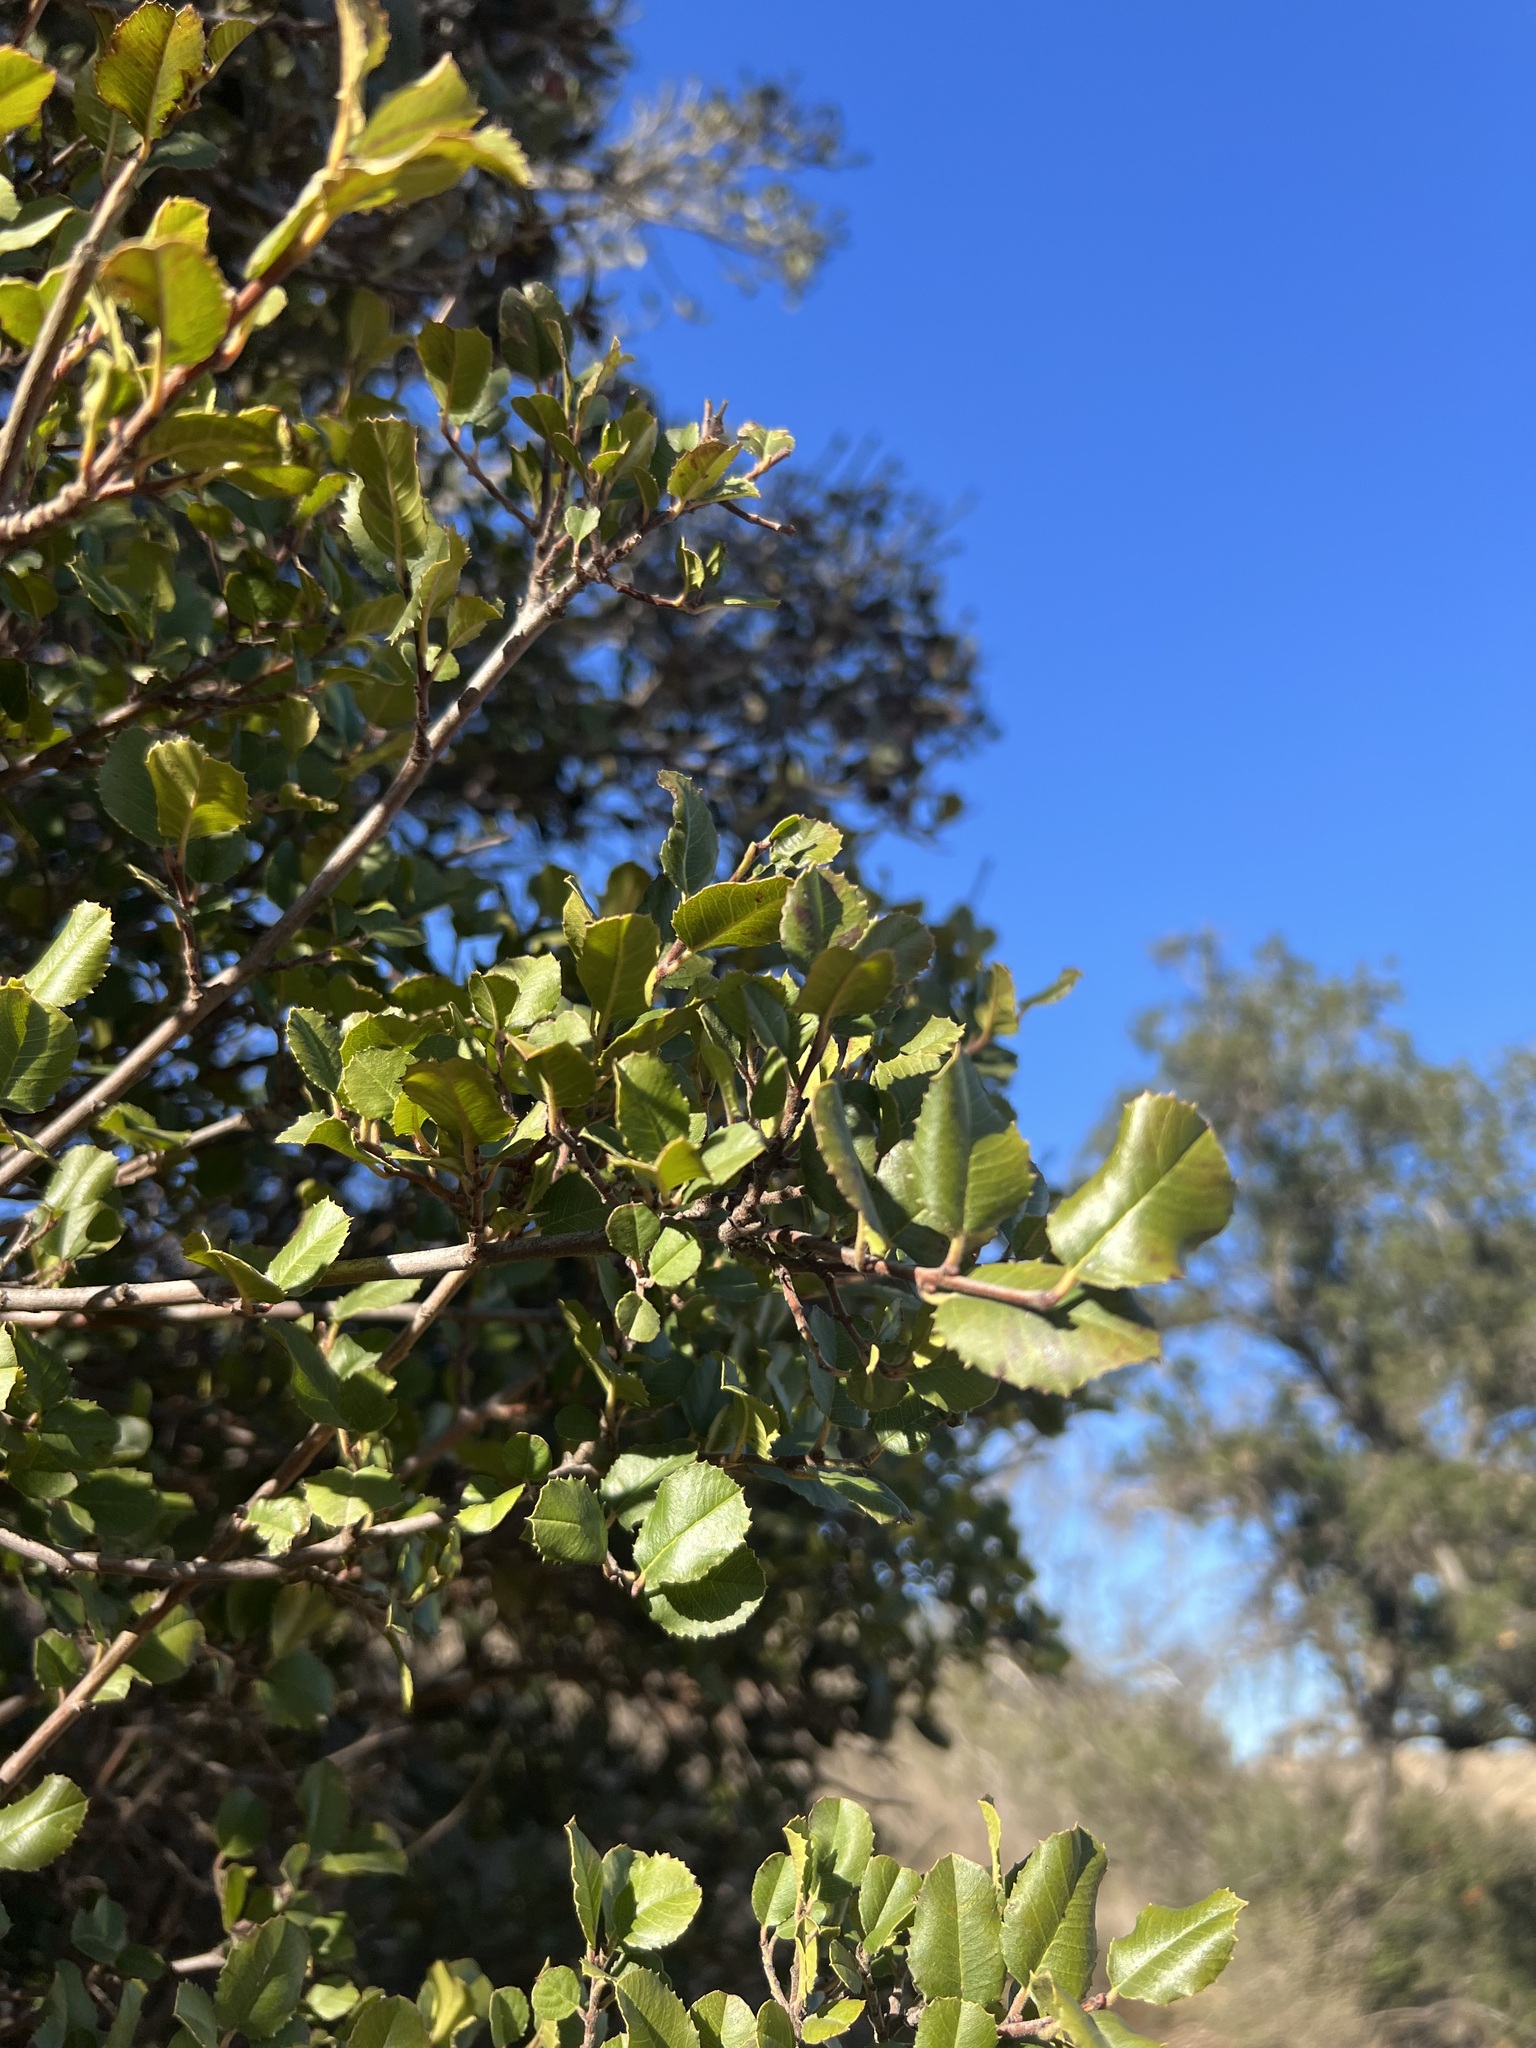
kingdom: Plantae
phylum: Tracheophyta
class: Magnoliopsida
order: Rosales
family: Rhamnaceae
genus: Endotropis
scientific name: Endotropis crocea
